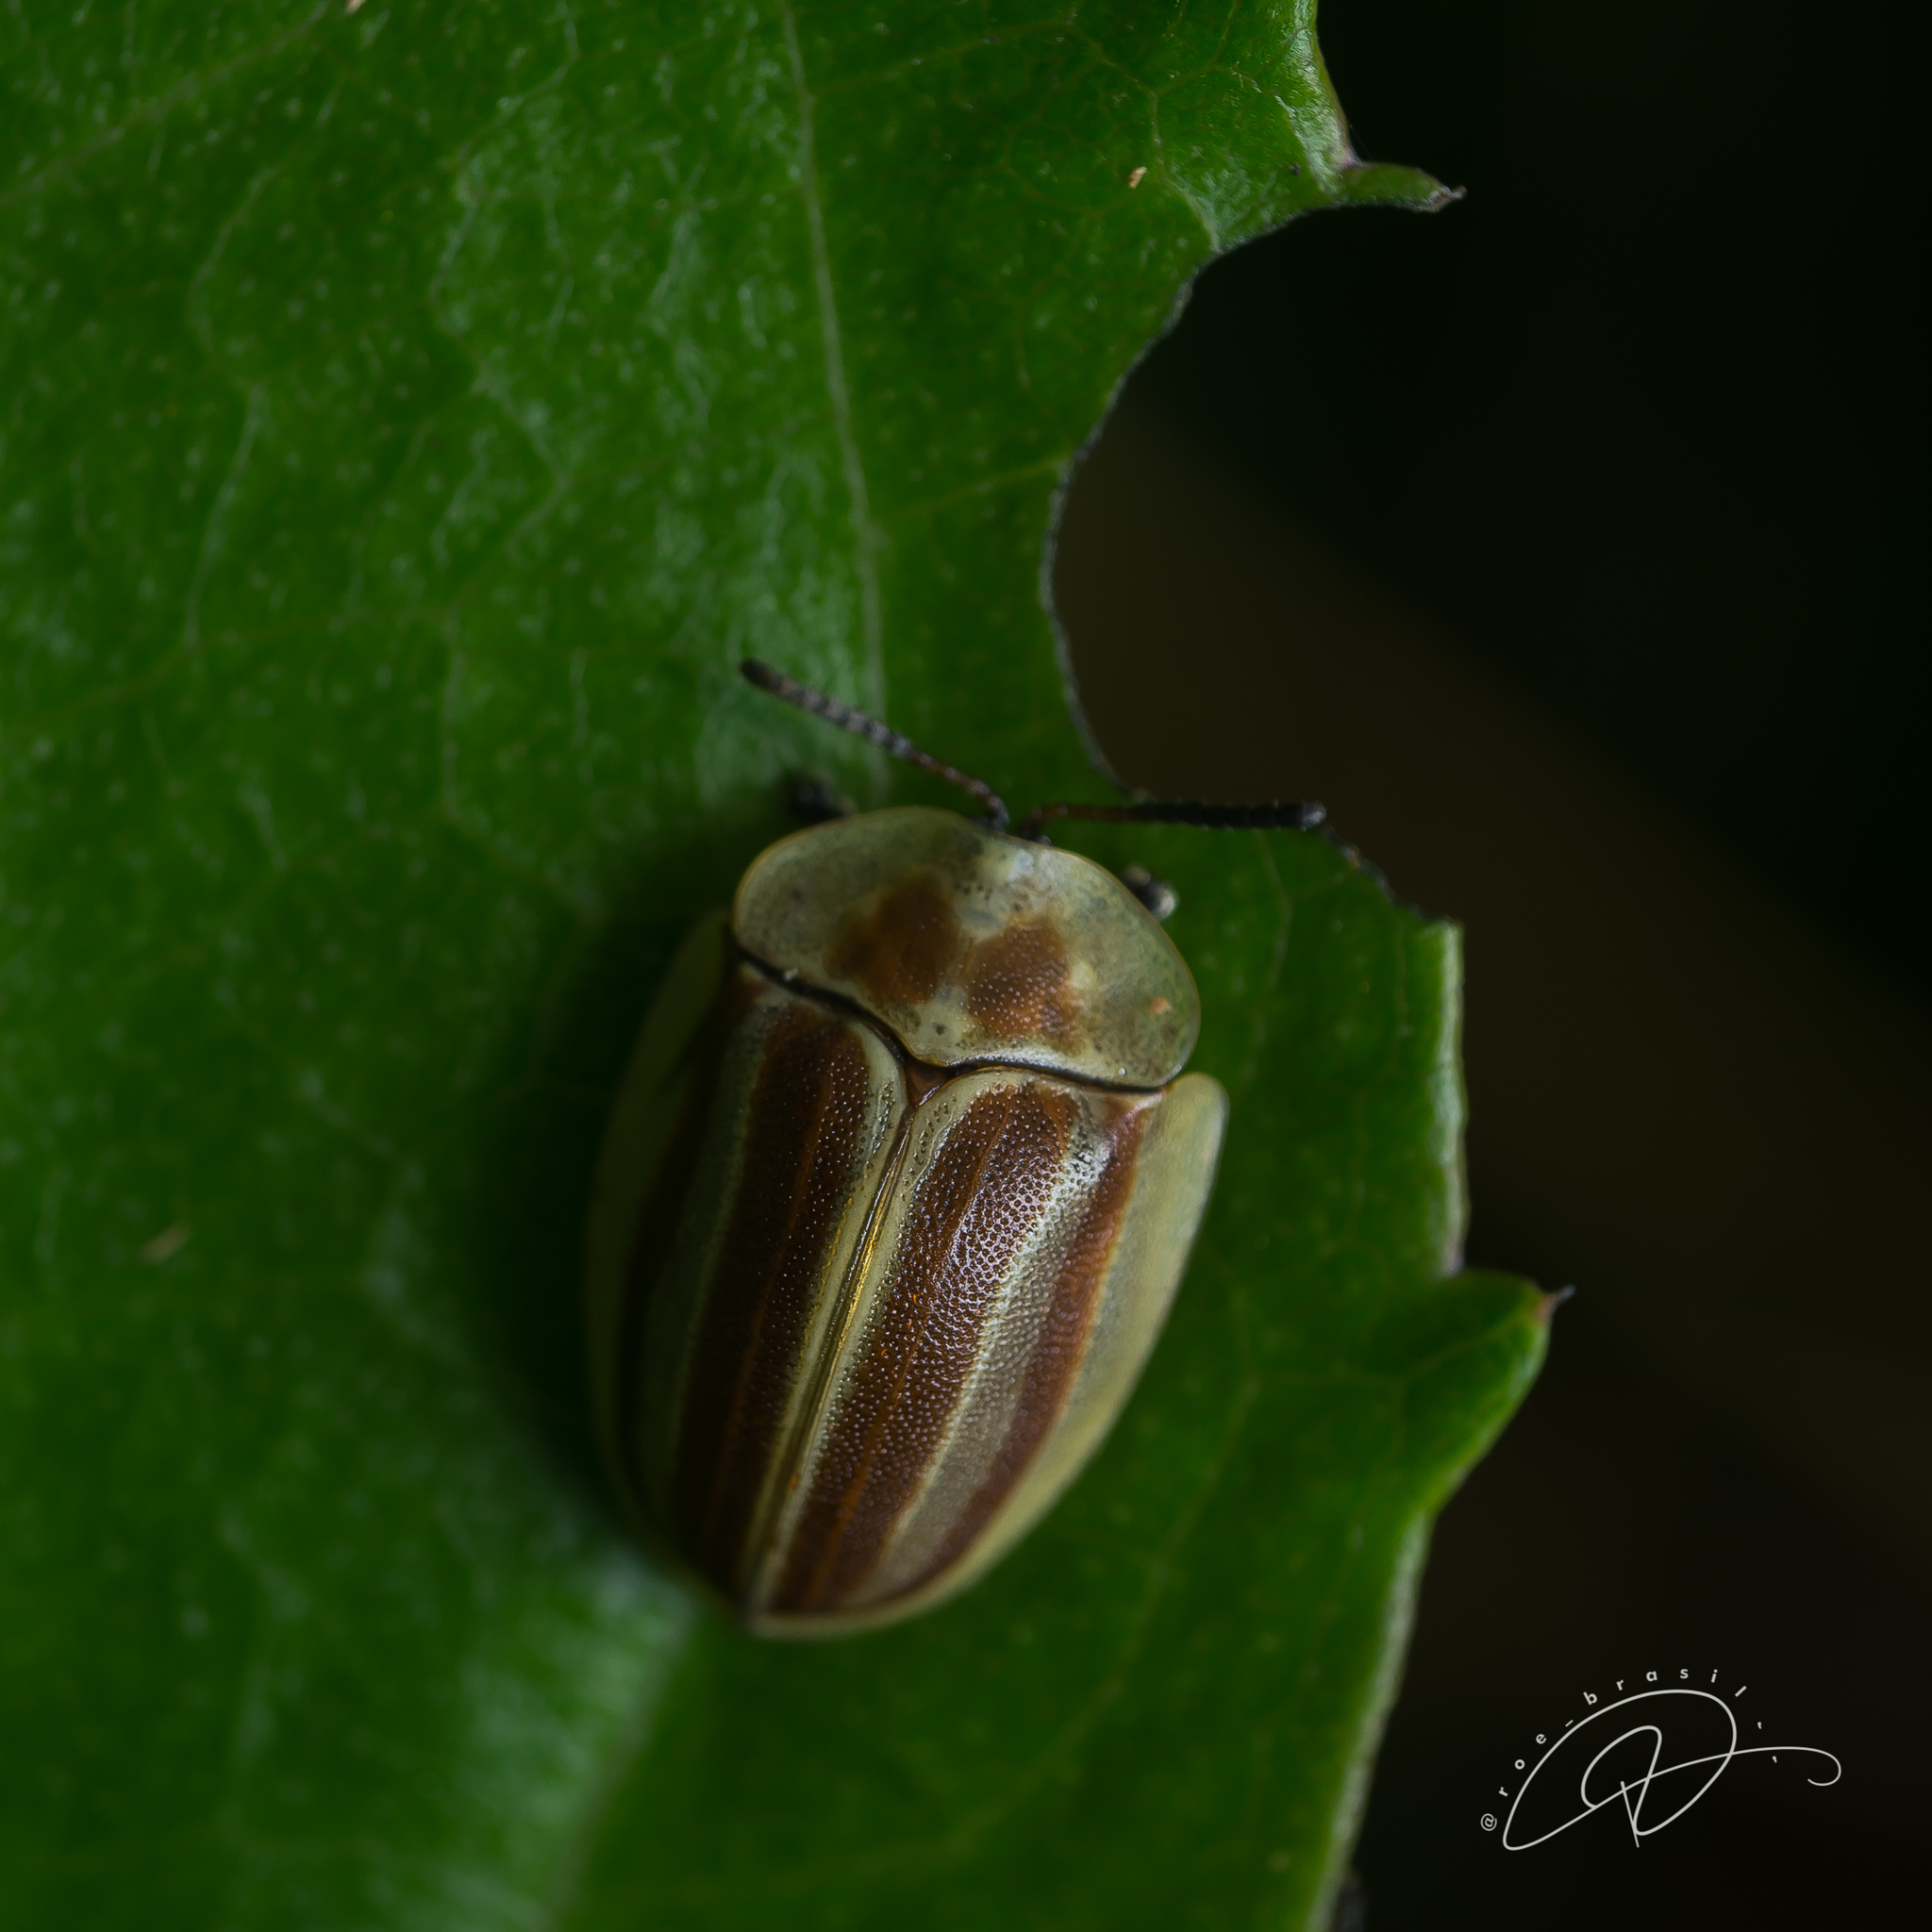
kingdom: Animalia
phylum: Arthropoda
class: Insecta
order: Coleoptera
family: Chrysomelidae
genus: Anacassis
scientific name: Anacassis fuscata
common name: Seepwillow flea beetle
